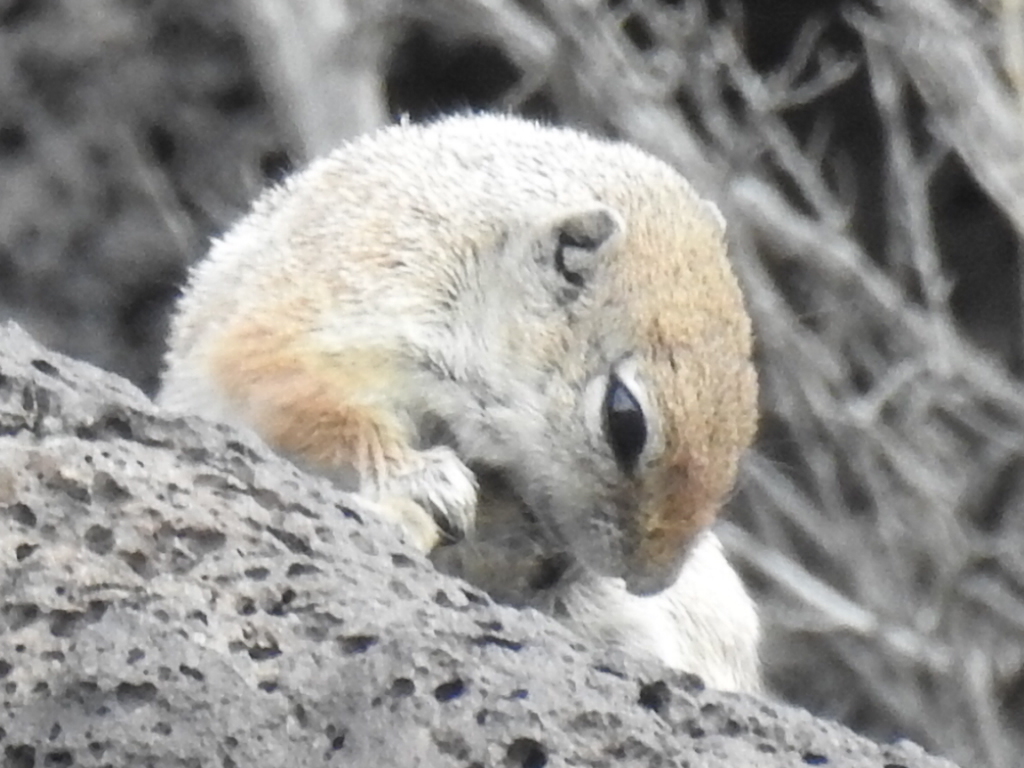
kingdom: Animalia
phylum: Chordata
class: Mammalia
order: Rodentia
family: Sciuridae
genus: Ammospermophilus
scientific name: Ammospermophilus leucurus
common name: White-tailed antelope squirrel
